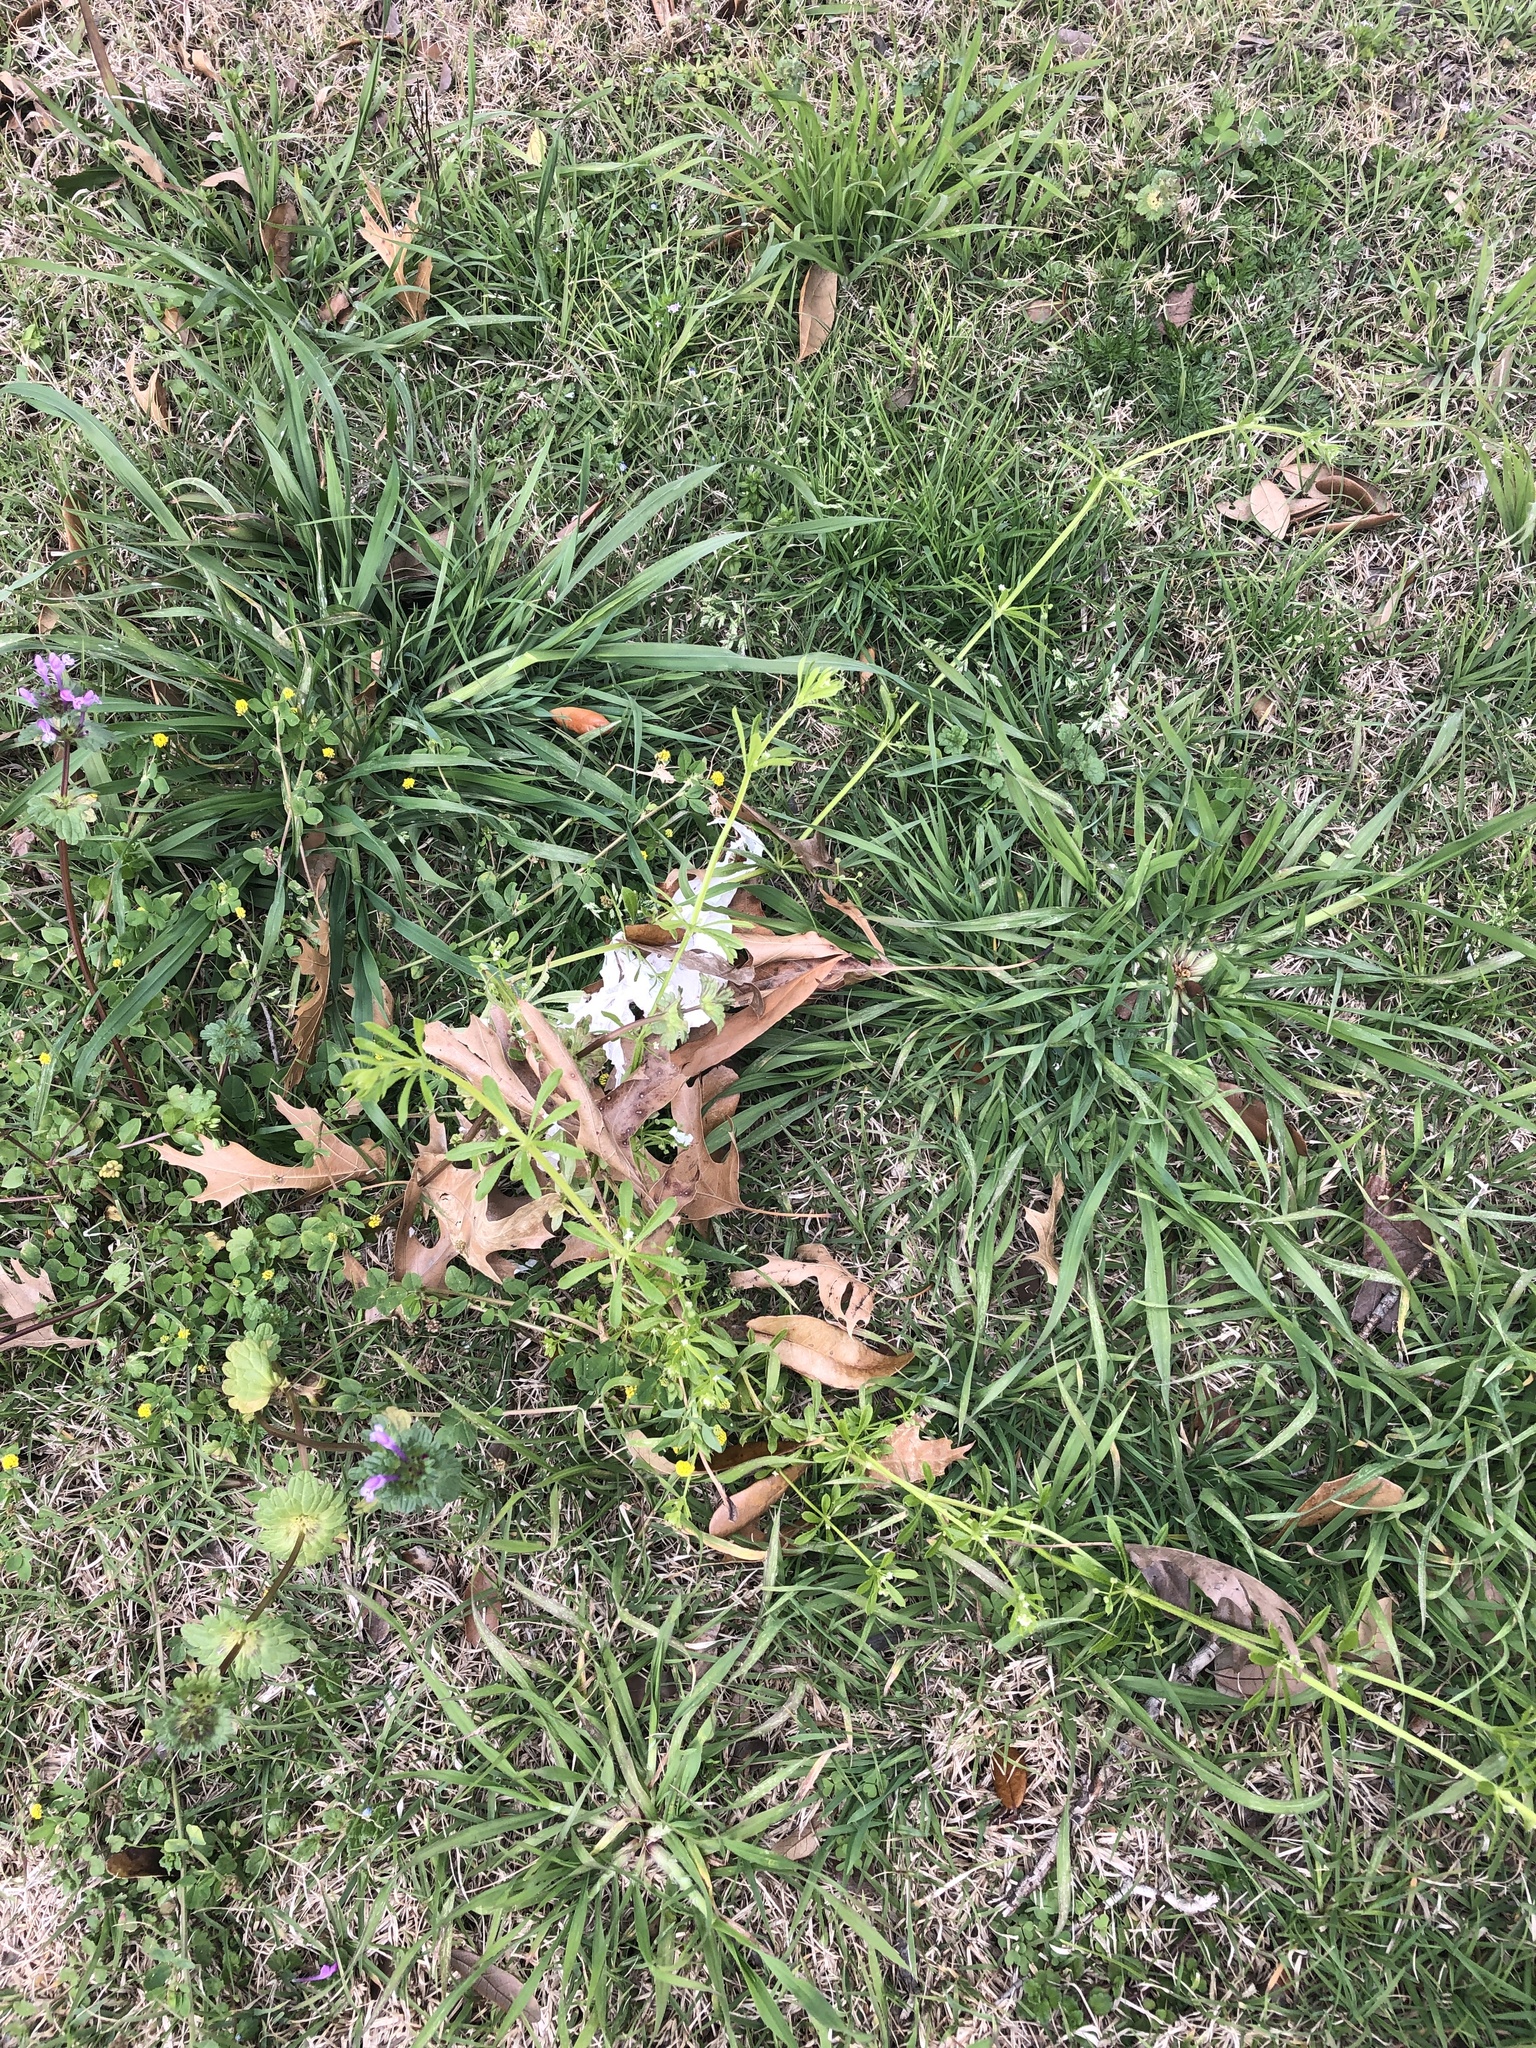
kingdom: Plantae
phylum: Tracheophyta
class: Magnoliopsida
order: Gentianales
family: Rubiaceae
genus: Galium
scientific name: Galium aparine
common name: Cleavers
